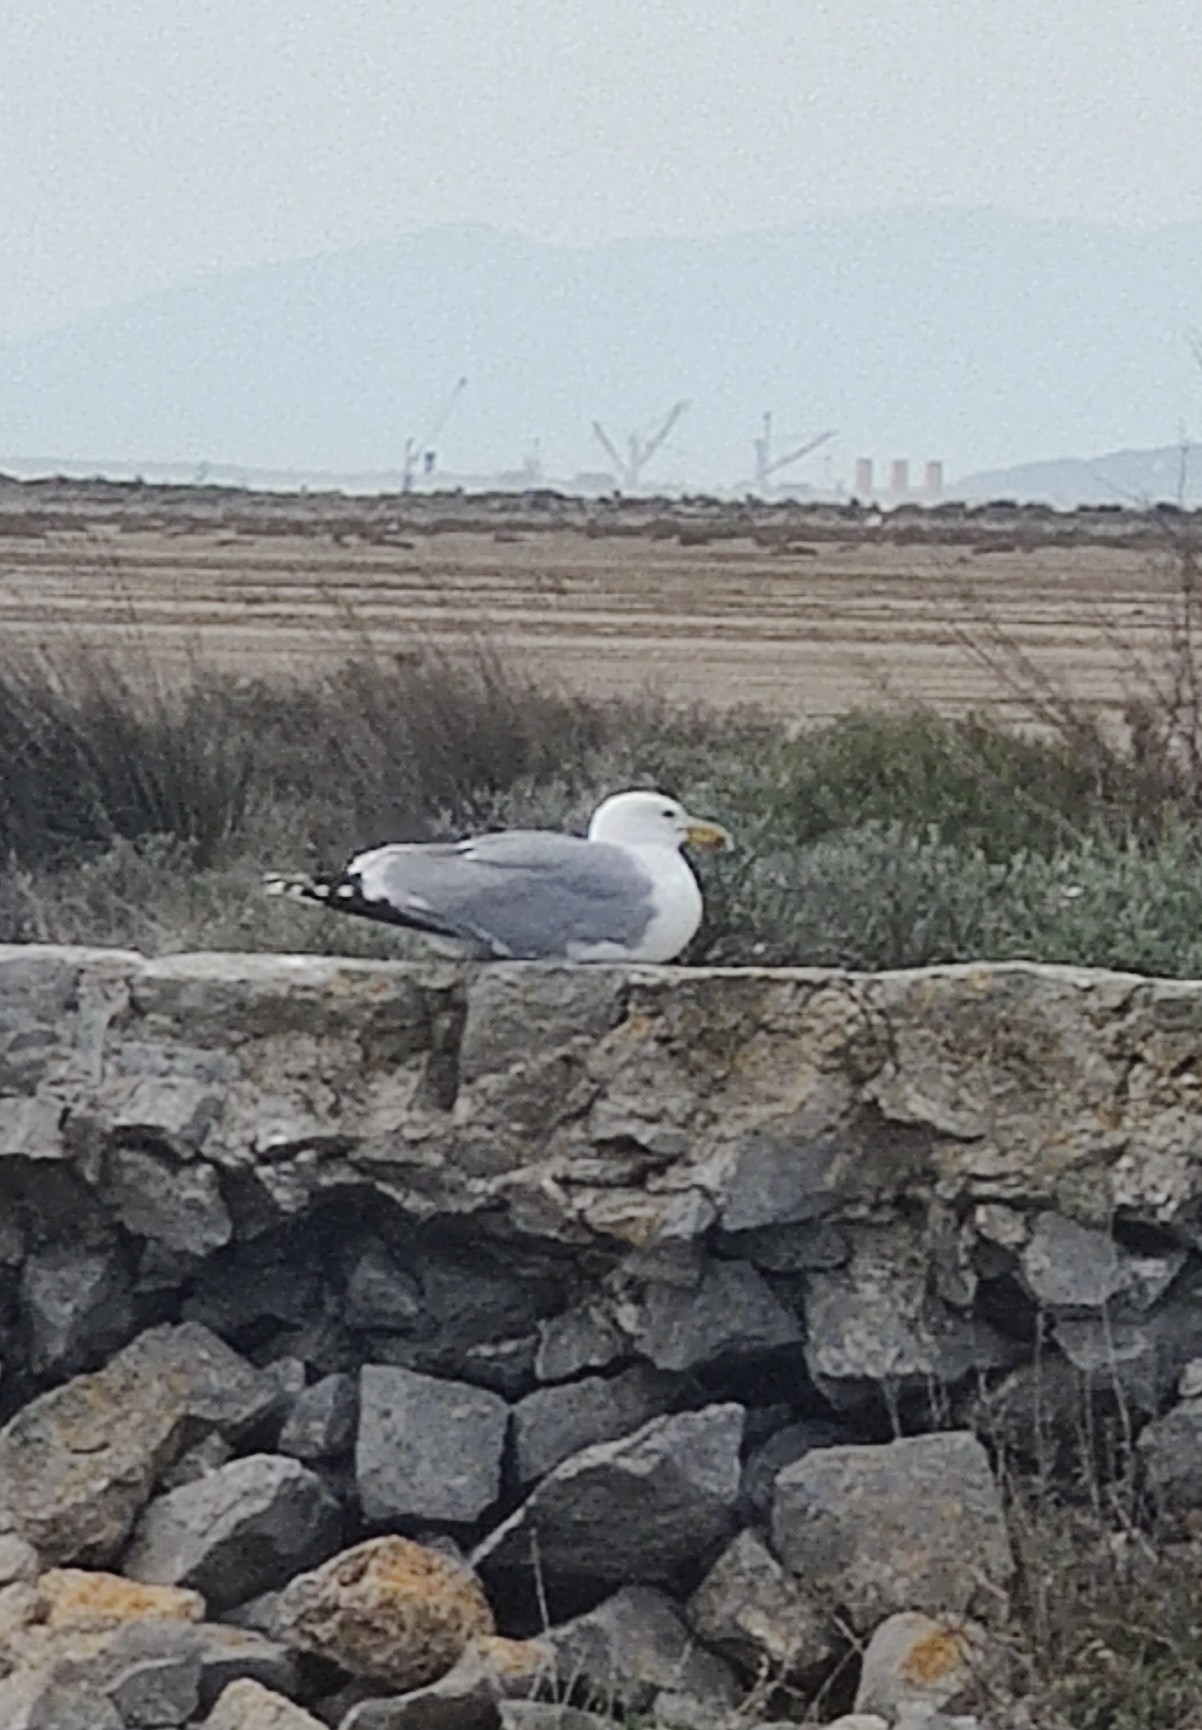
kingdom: Animalia
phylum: Chordata
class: Aves
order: Charadriiformes
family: Laridae
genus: Larus
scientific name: Larus michahellis
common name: Yellow-legged gull
